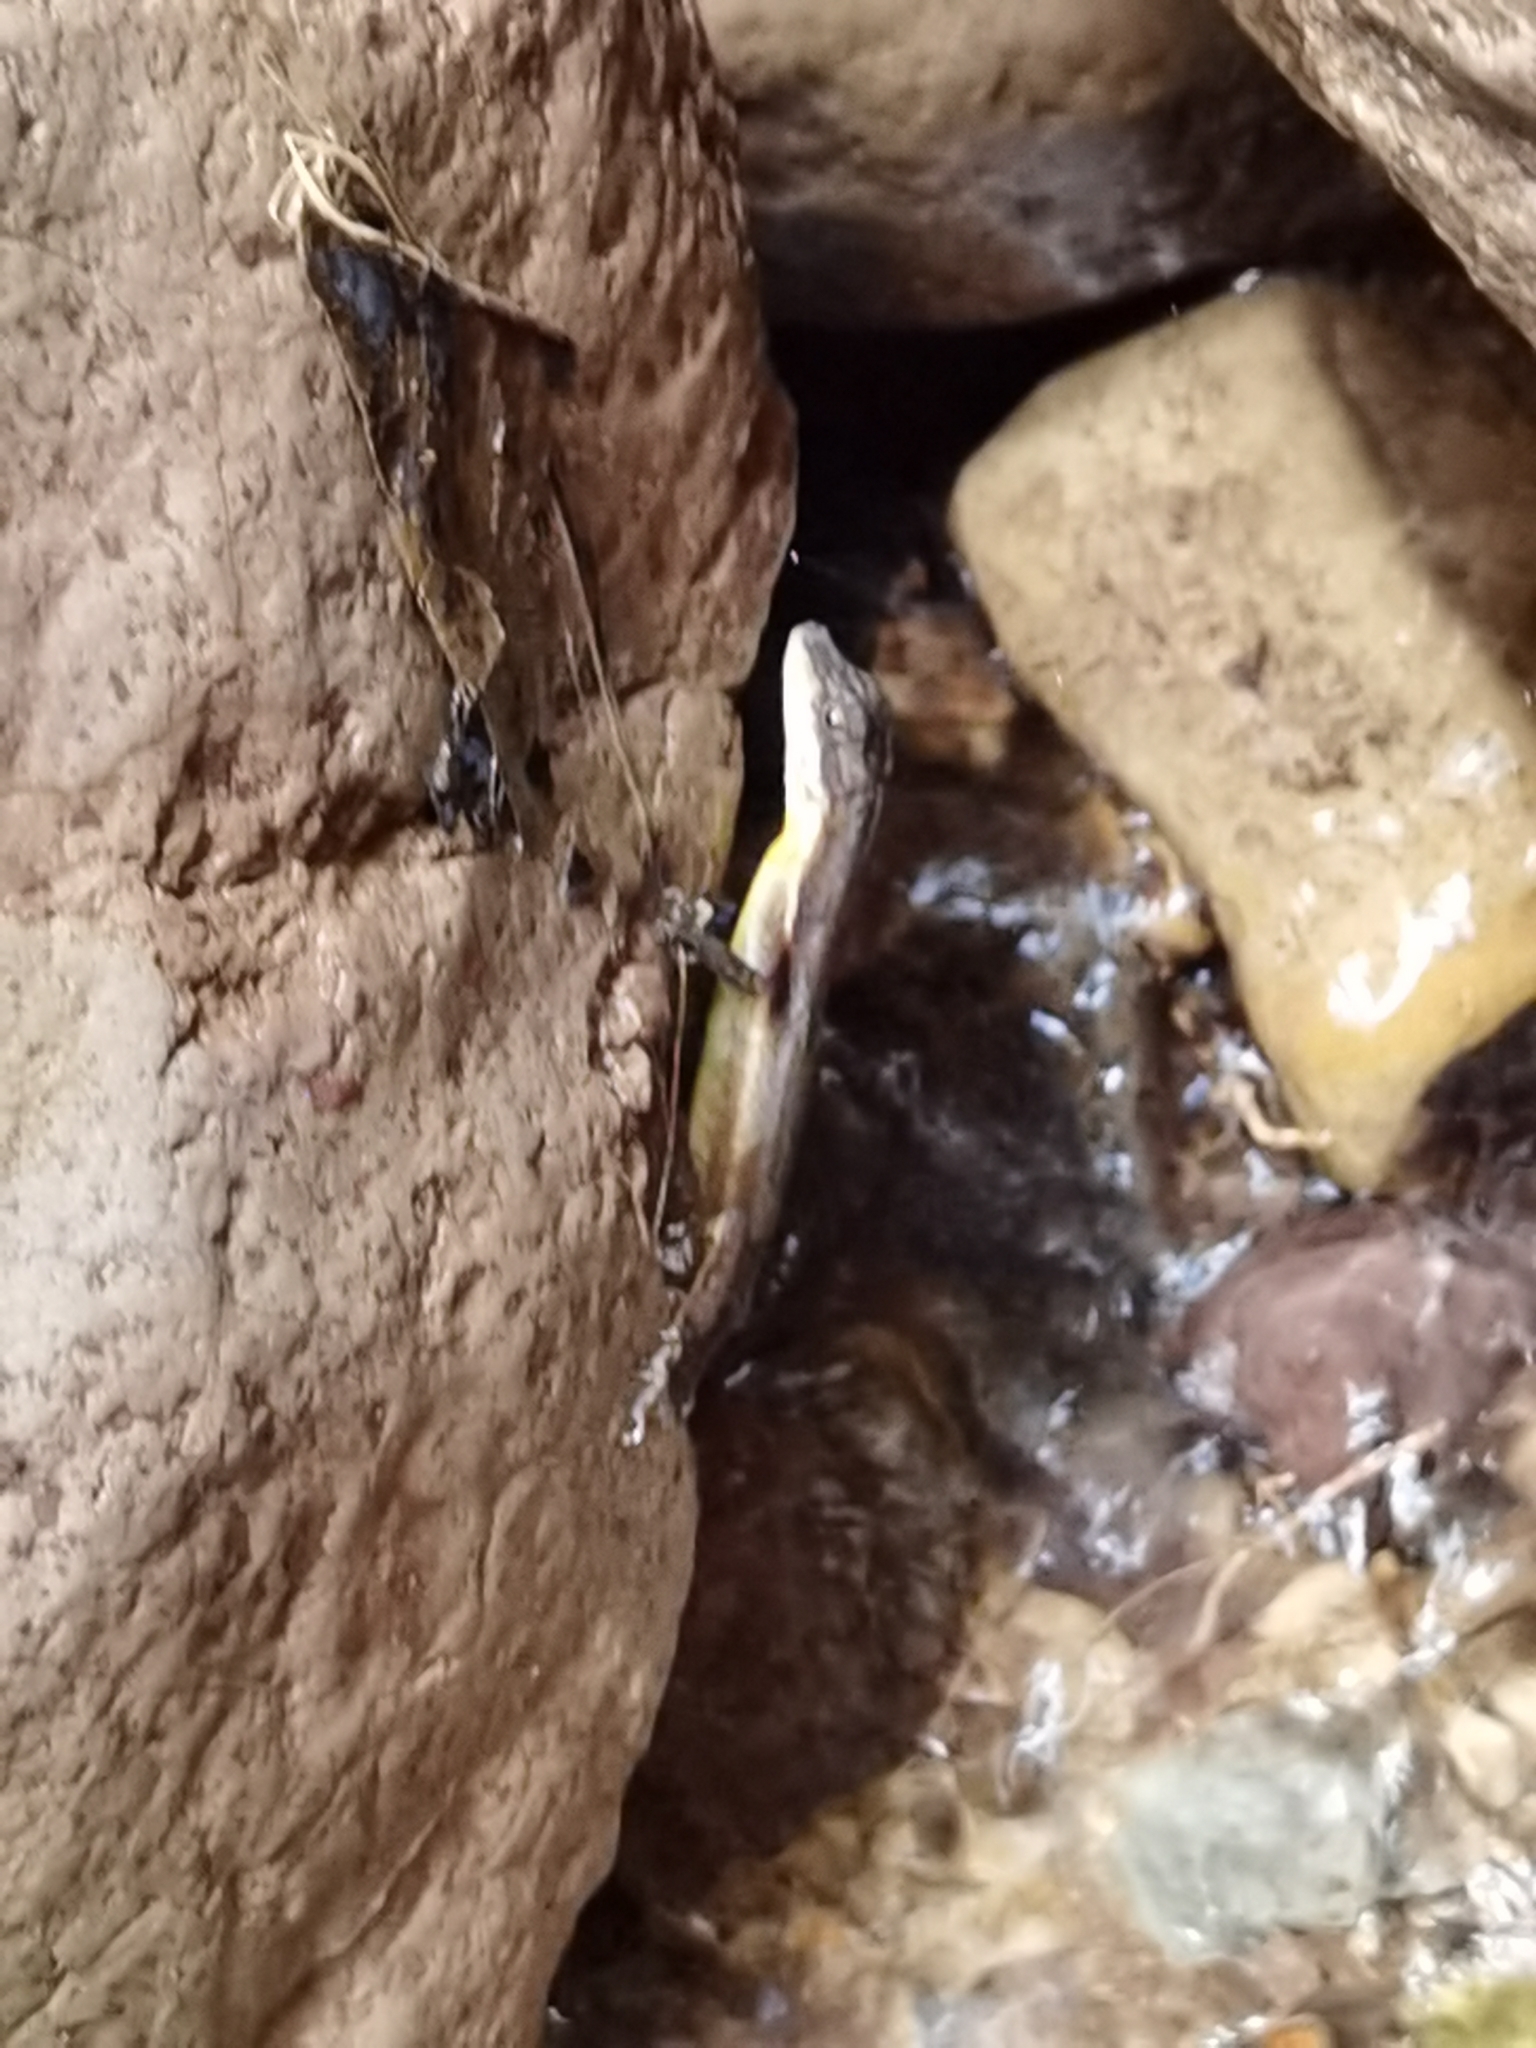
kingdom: Animalia
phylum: Chordata
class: Squamata
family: Dactyloidae
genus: Anolis
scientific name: Anolis oxylophus
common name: Stream anole
